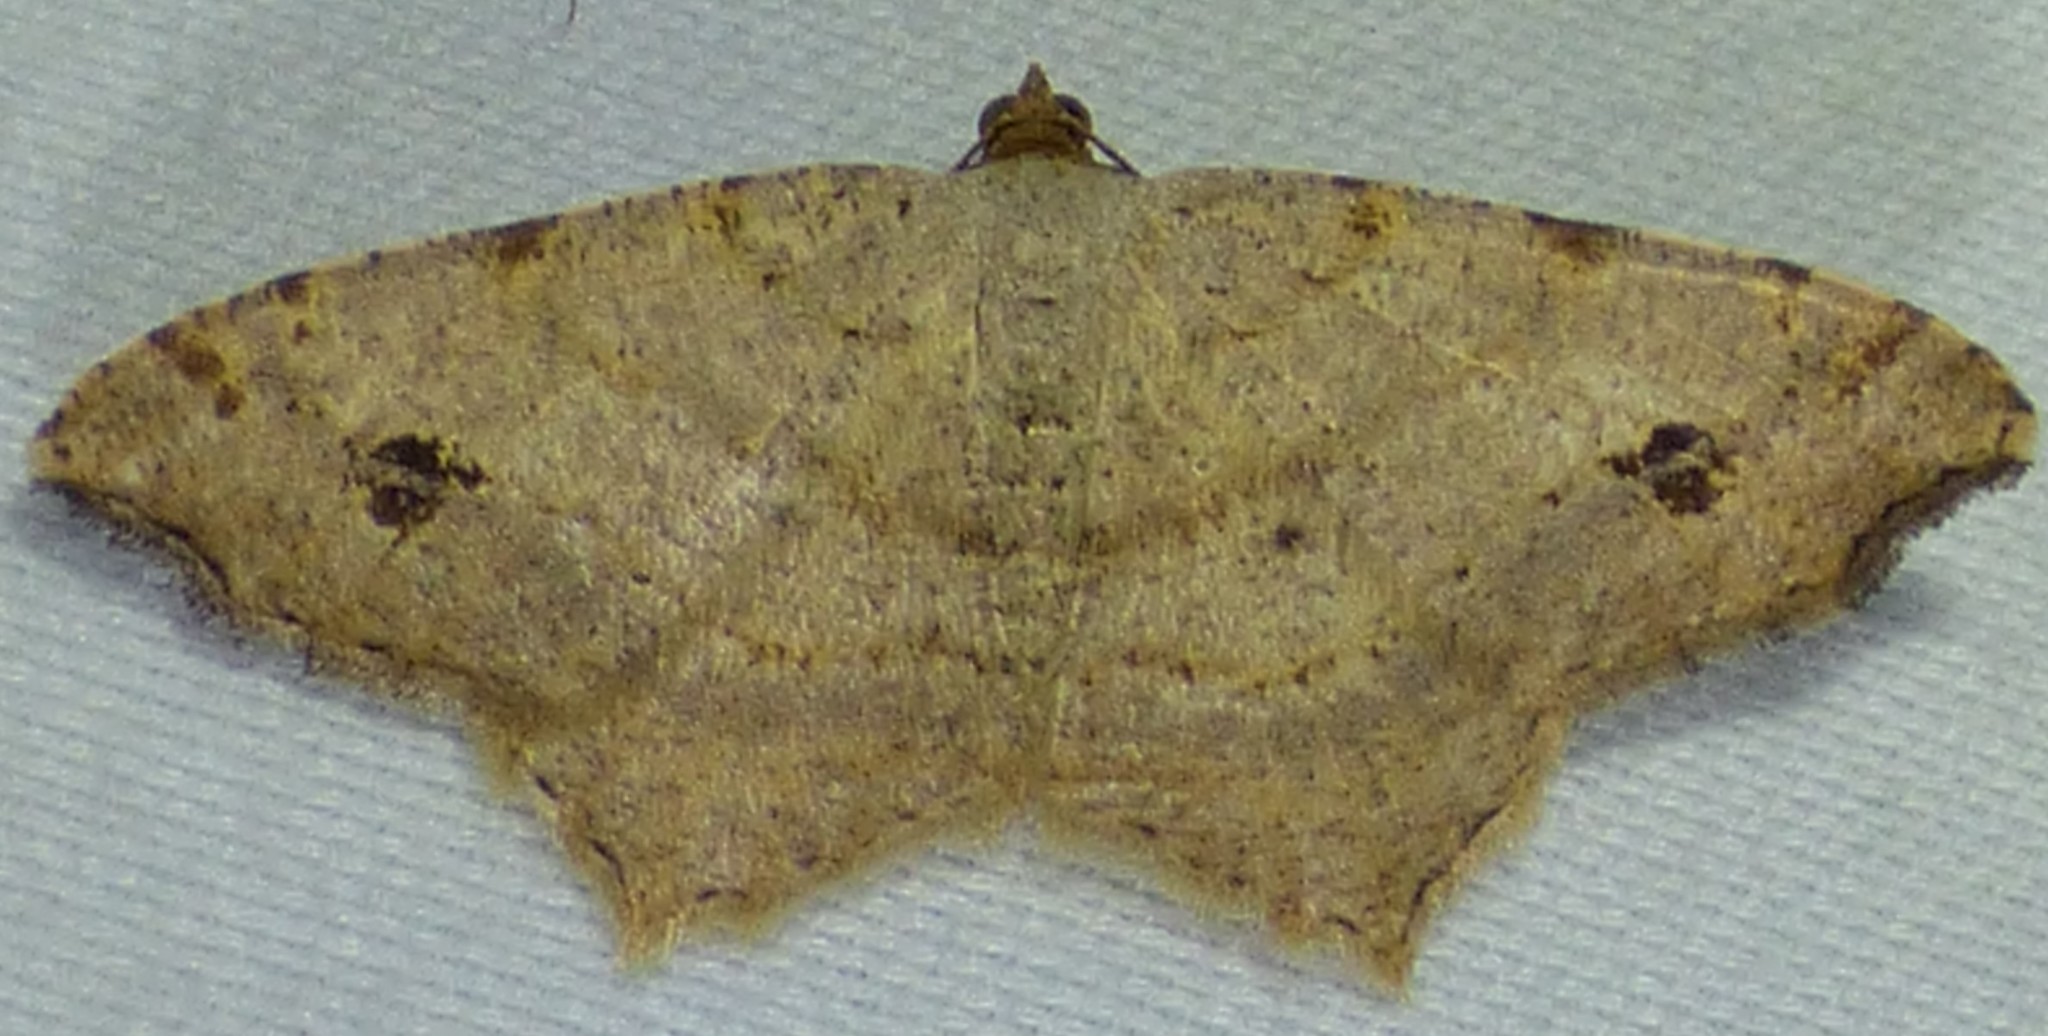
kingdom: Animalia
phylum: Arthropoda
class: Insecta
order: Lepidoptera
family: Geometridae
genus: Macaria
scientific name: Macaria aemulataria
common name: Common angle
